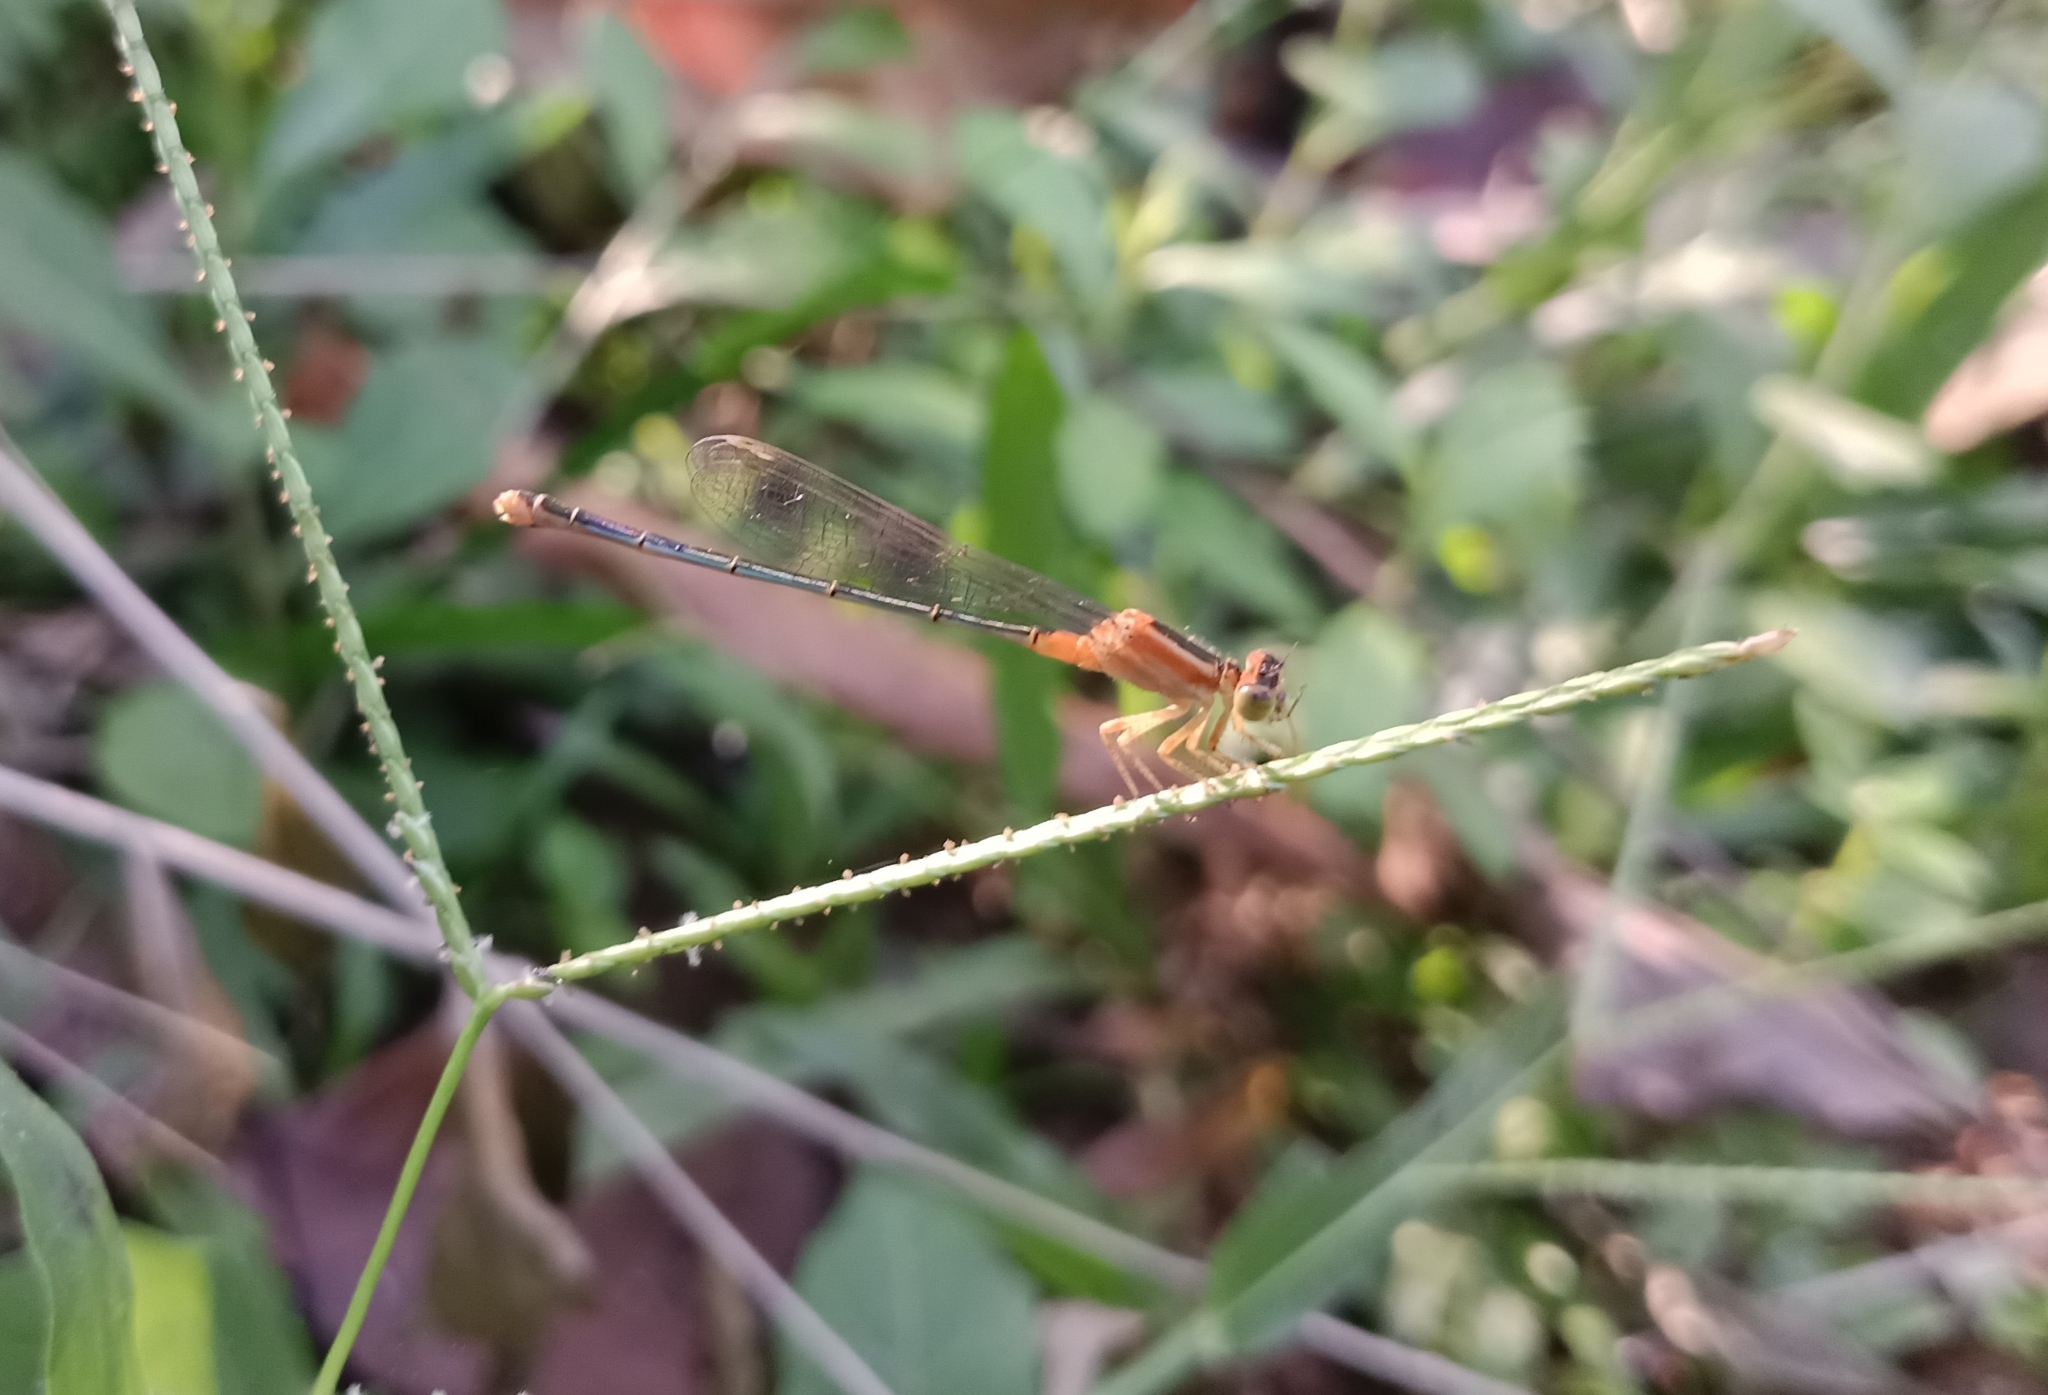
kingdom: Animalia
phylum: Arthropoda
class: Insecta
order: Odonata
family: Coenagrionidae
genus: Ischnura
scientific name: Ischnura senegalensis
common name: Tropical bluetail
